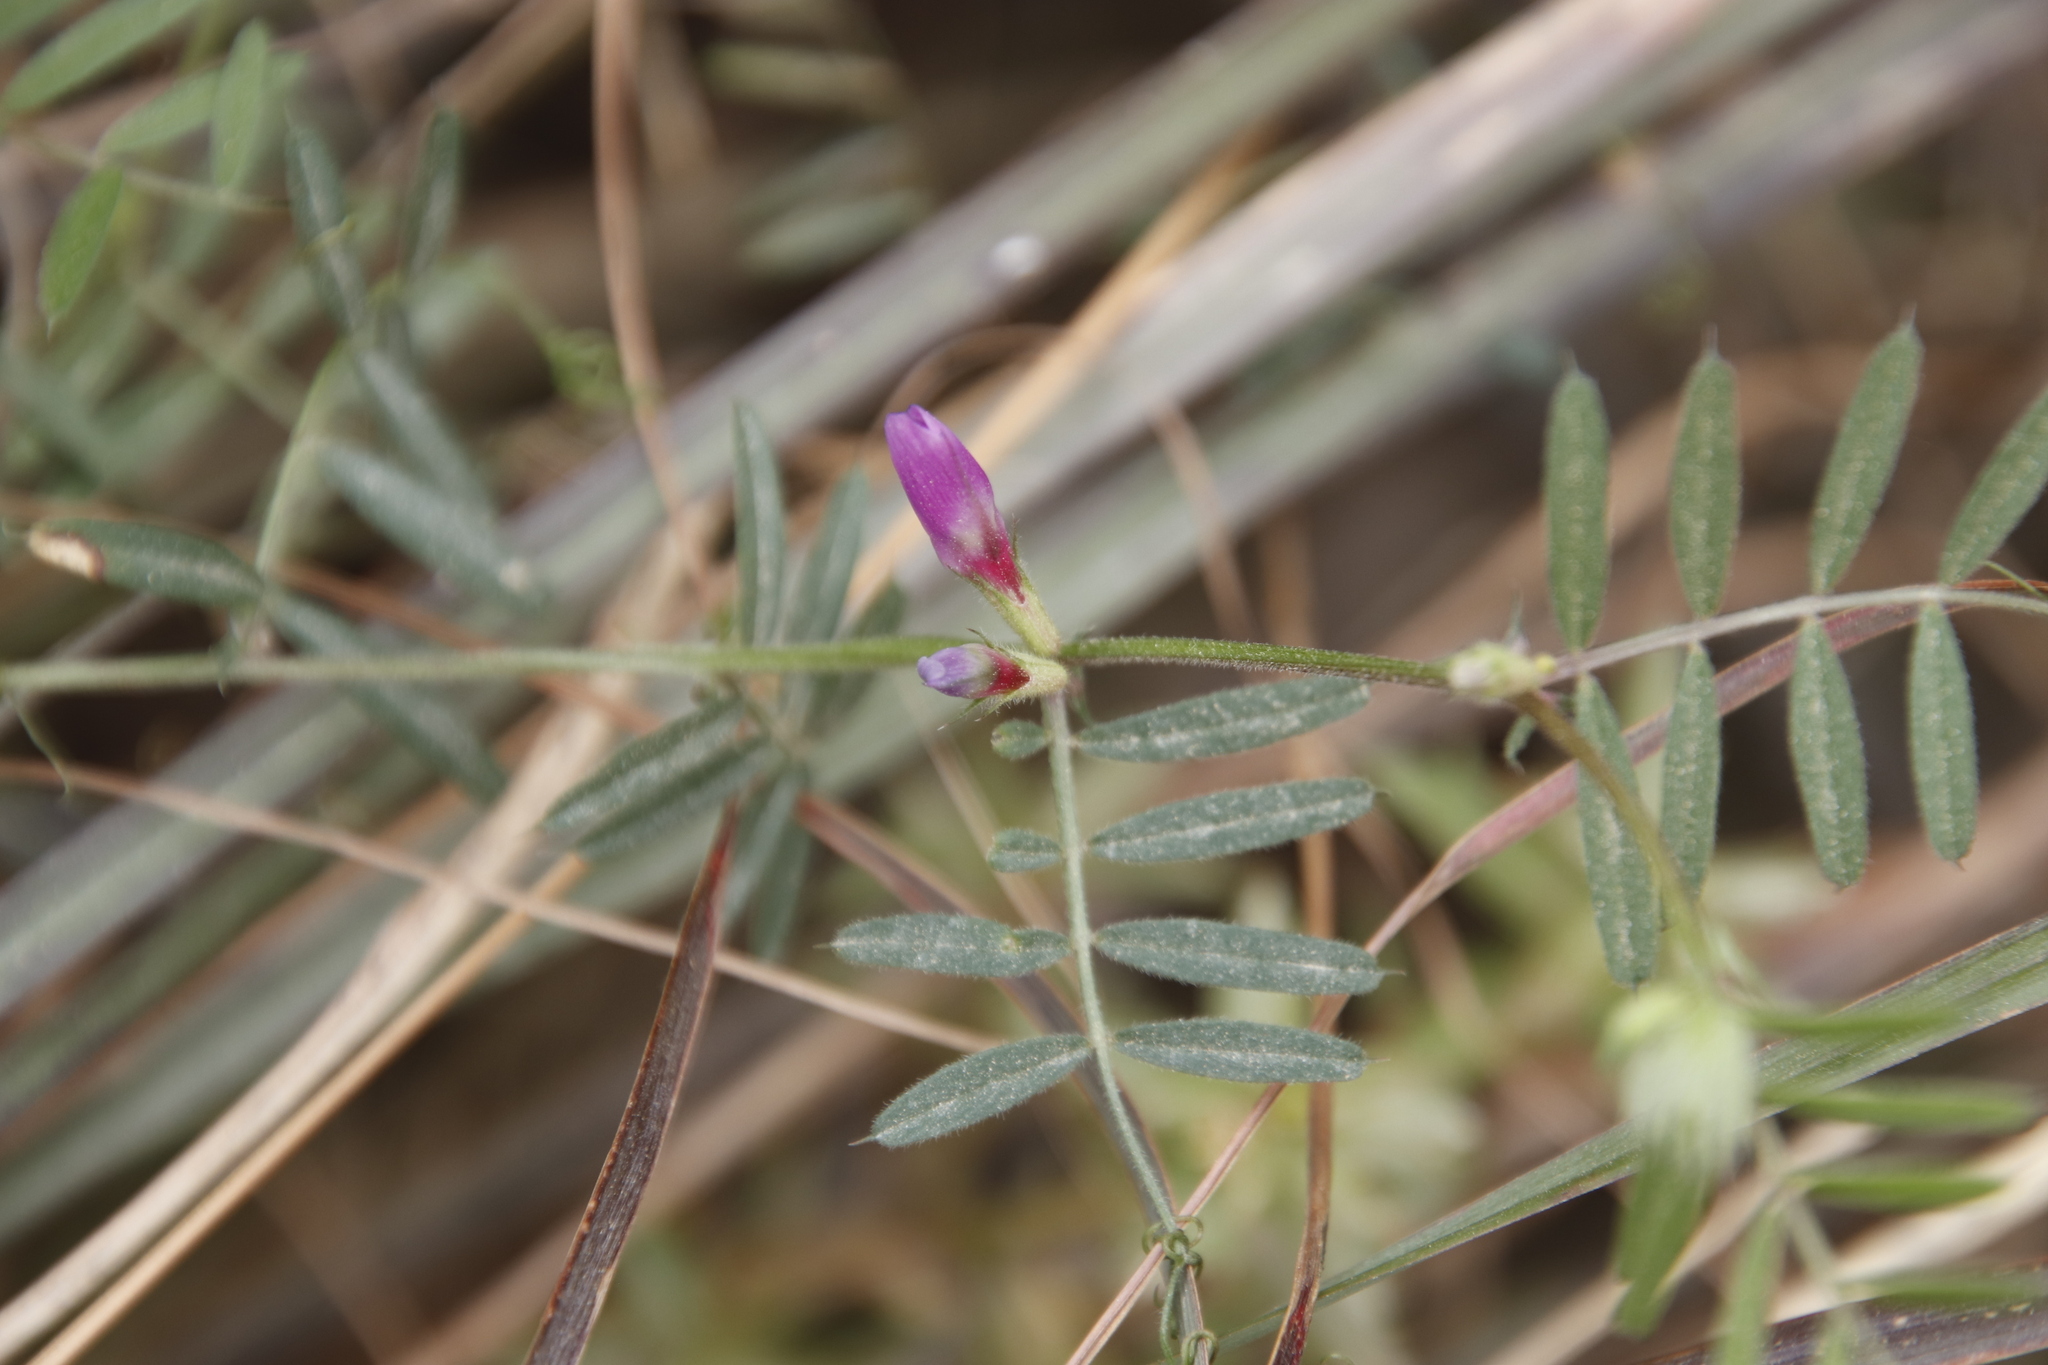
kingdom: Plantae
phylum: Tracheophyta
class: Magnoliopsida
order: Fabales
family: Fabaceae
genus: Vicia
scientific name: Vicia sativa
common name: Garden vetch
